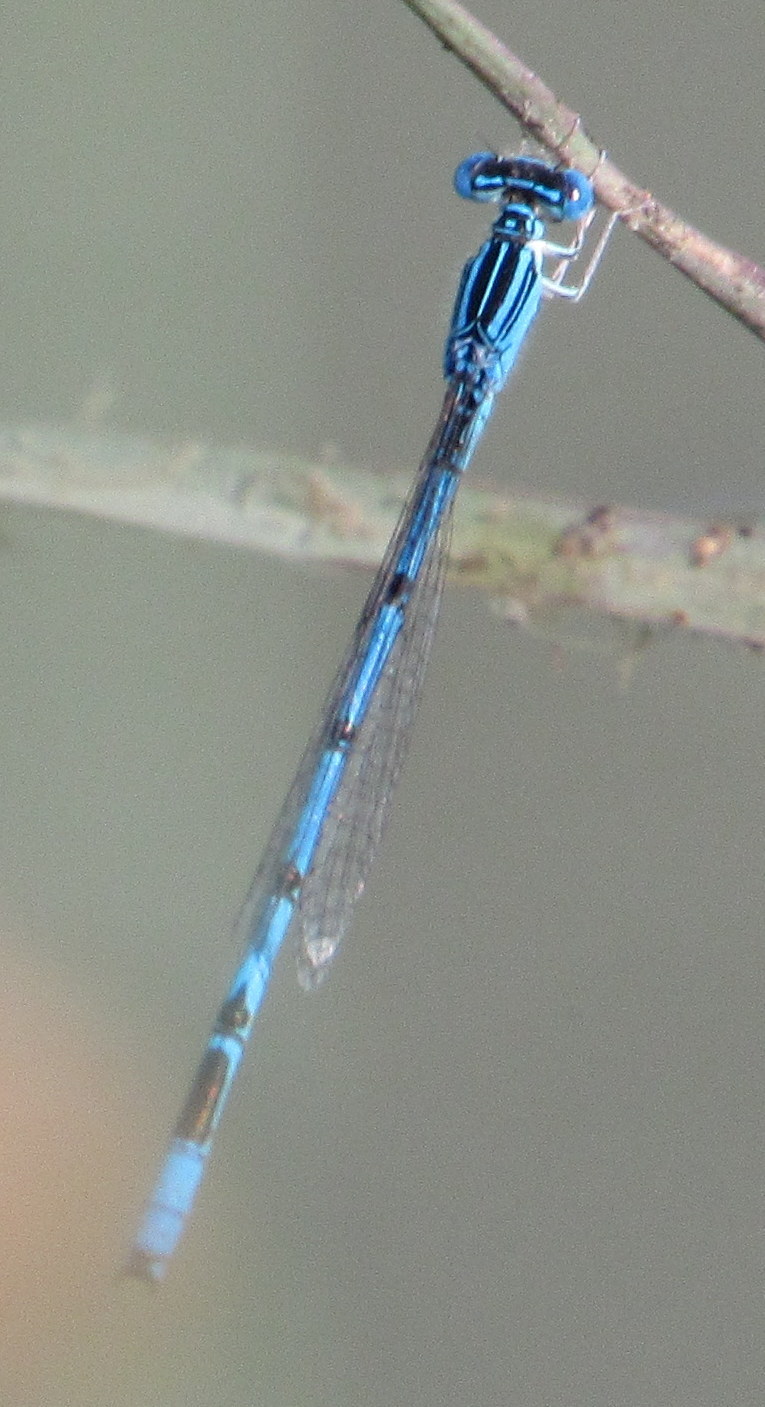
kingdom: Animalia
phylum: Arthropoda
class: Insecta
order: Odonata
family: Coenagrionidae
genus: Enallagma
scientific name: Enallagma basidens
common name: Double-striped bluet
